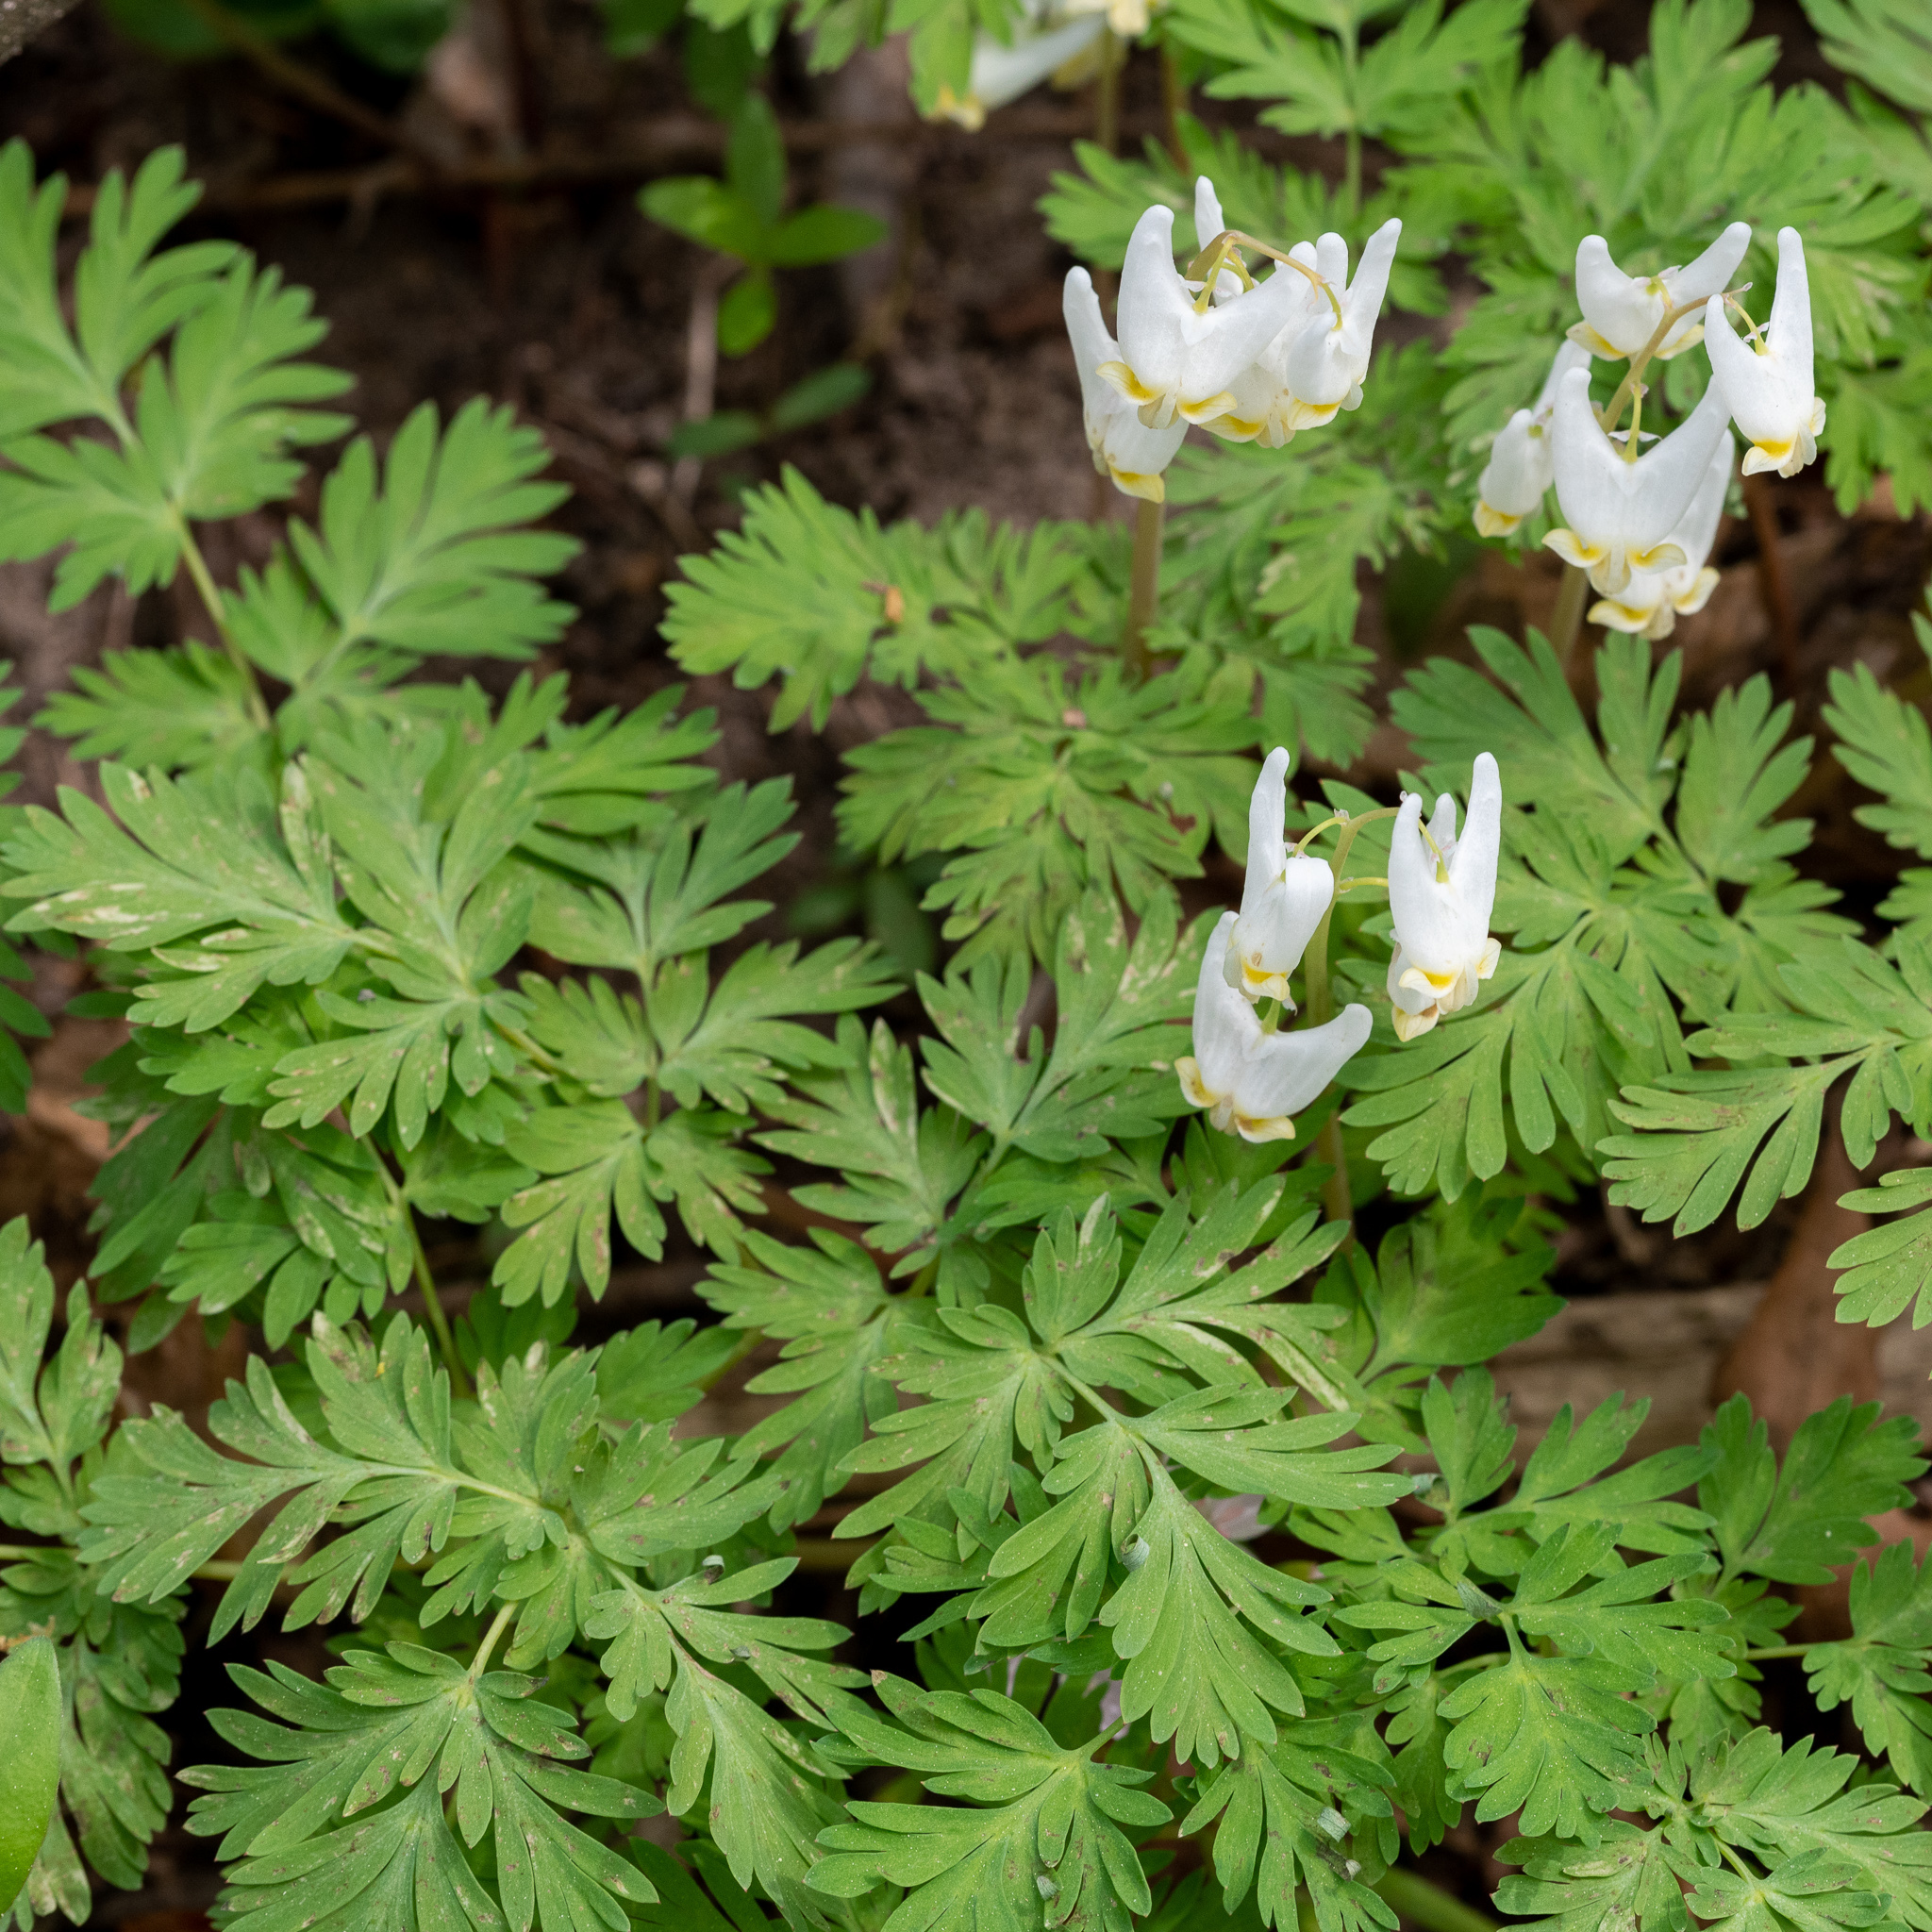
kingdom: Plantae
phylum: Tracheophyta
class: Magnoliopsida
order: Ranunculales
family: Papaveraceae
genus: Dicentra
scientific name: Dicentra cucullaria
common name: Dutchman's breeches
